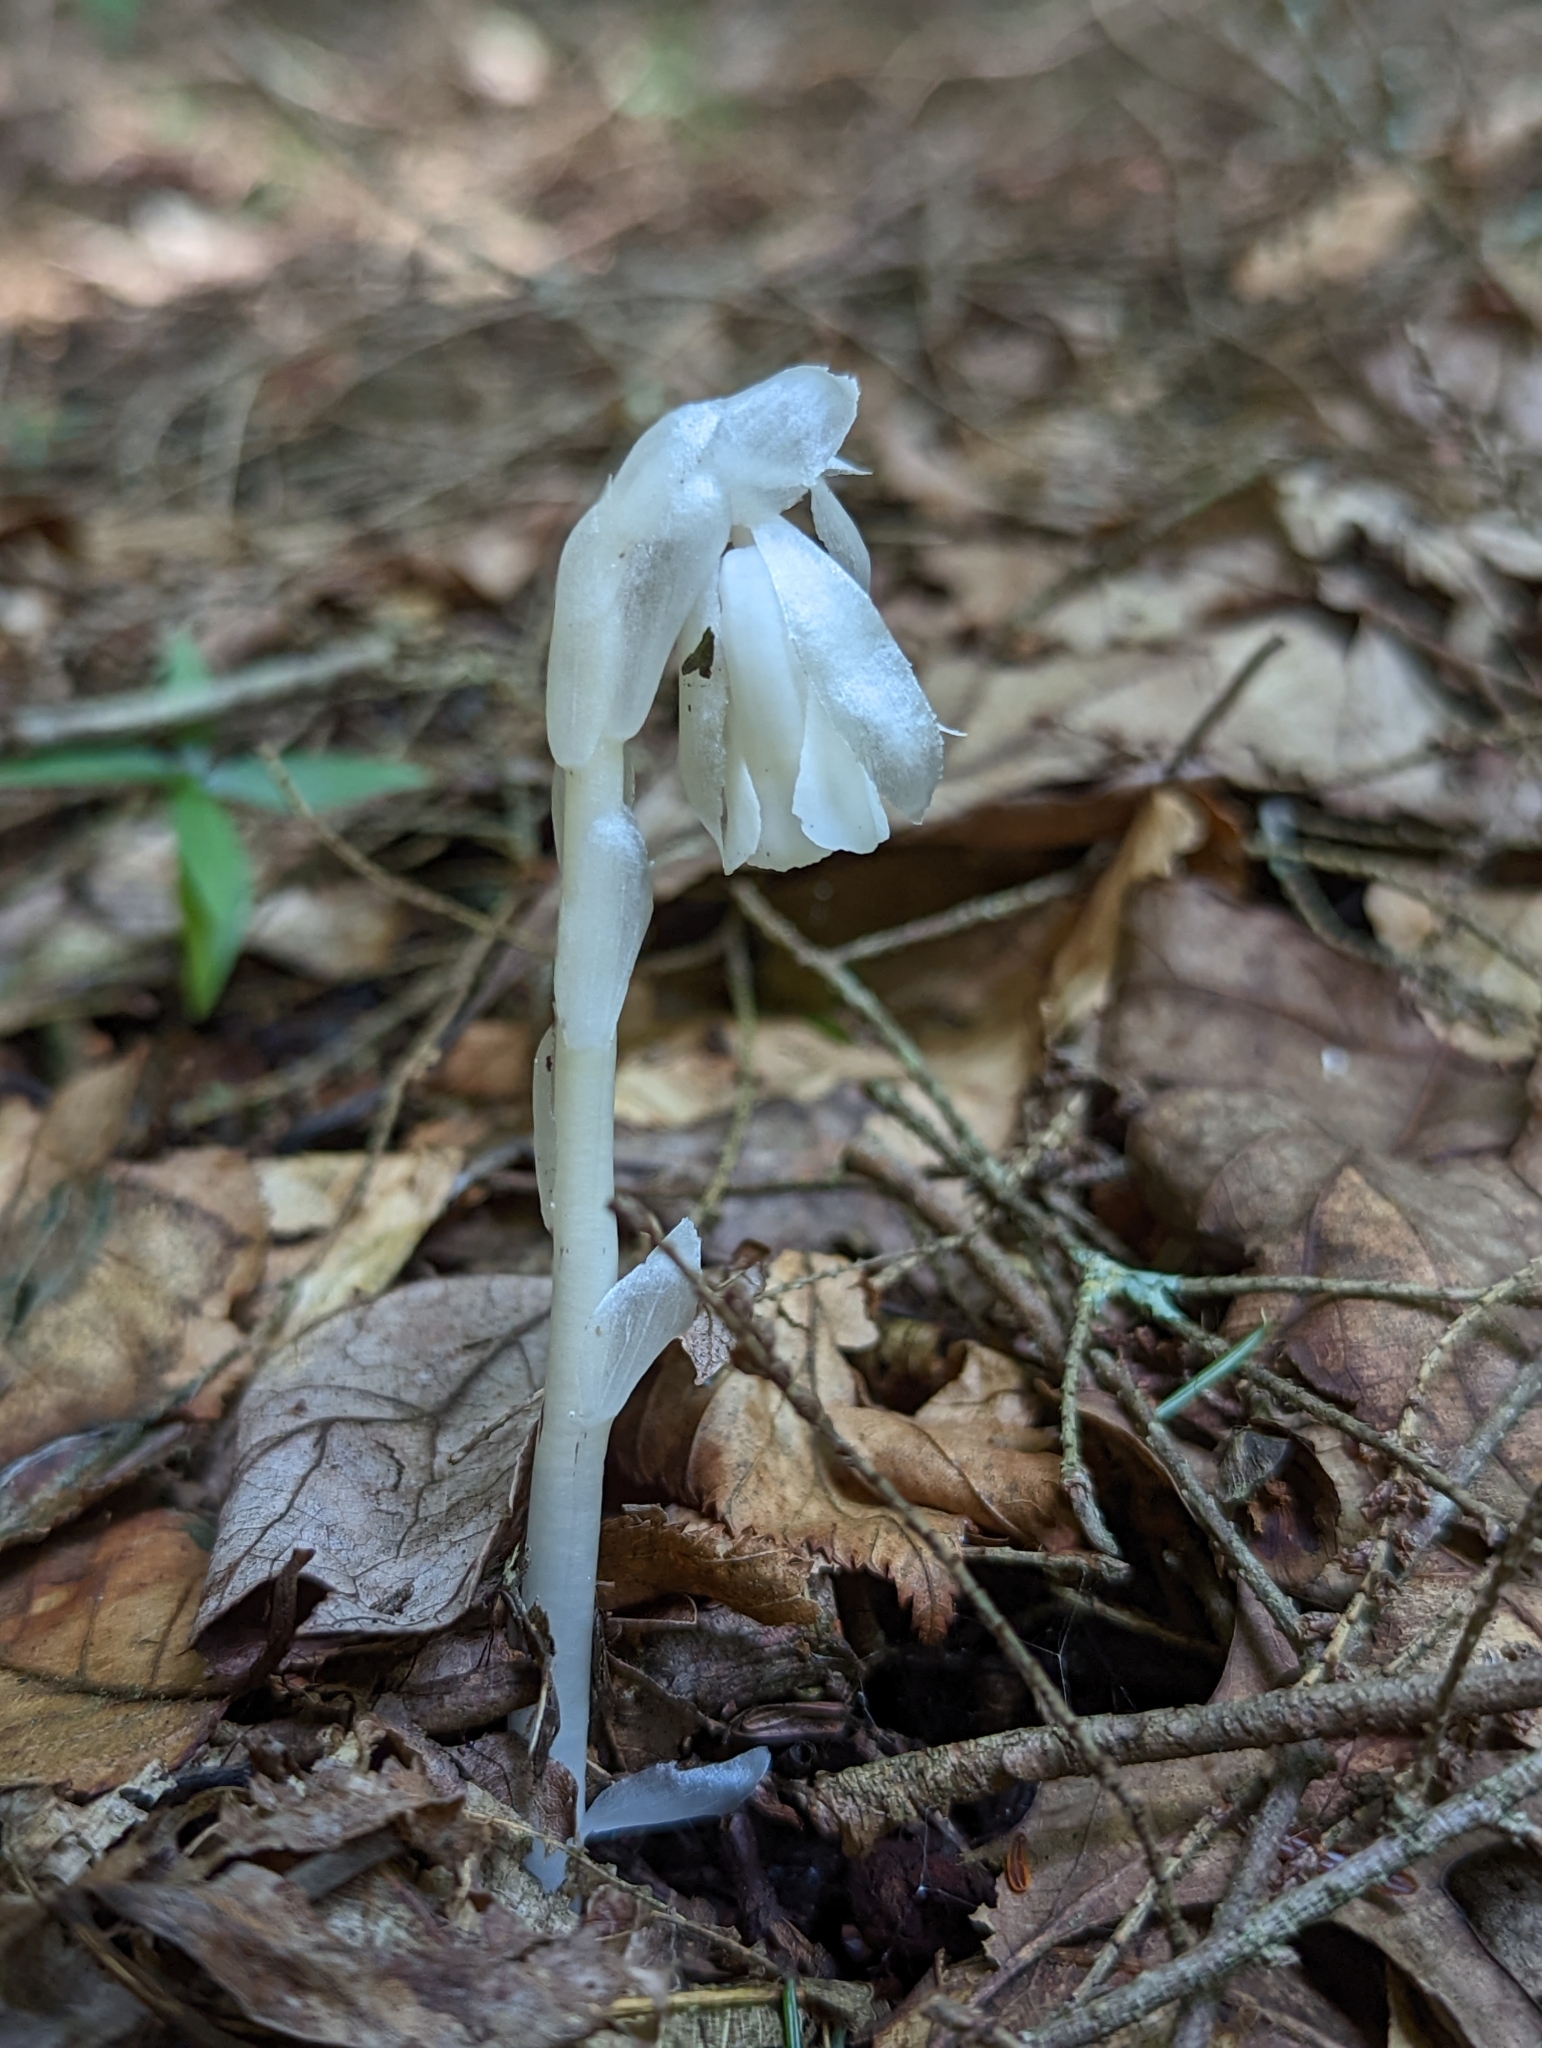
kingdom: Plantae
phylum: Tracheophyta
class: Magnoliopsida
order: Ericales
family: Ericaceae
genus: Monotropa
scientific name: Monotropa uniflora
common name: Convulsion root
